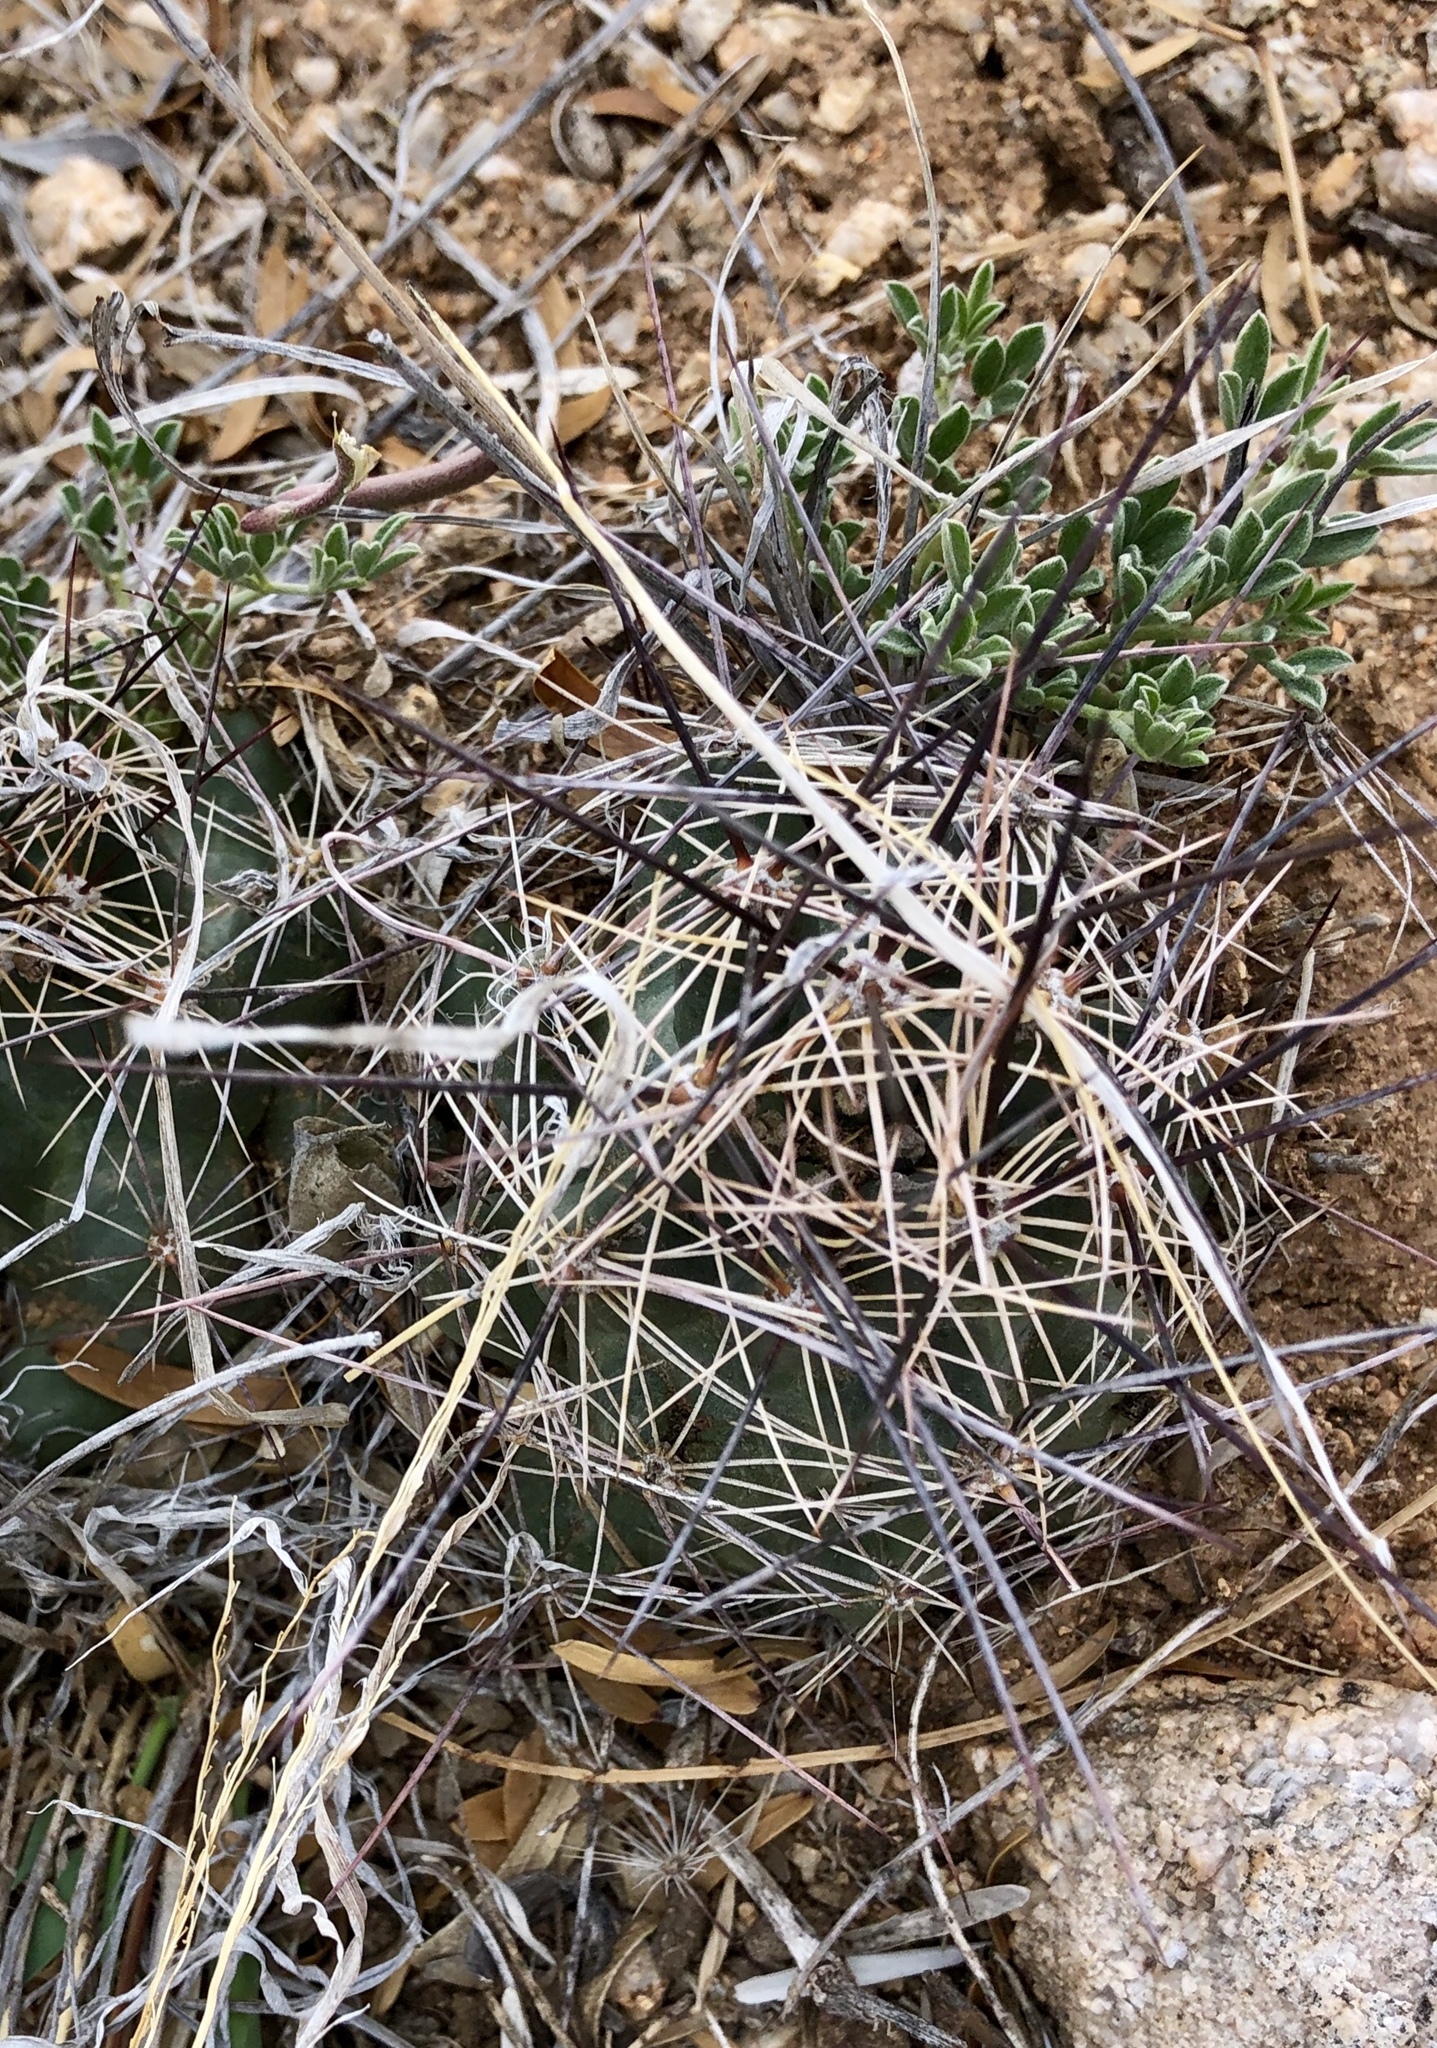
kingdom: Plantae
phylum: Tracheophyta
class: Magnoliopsida
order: Caryophyllales
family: Cactaceae
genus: Coryphantha
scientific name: Coryphantha macromeris
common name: Nipple beehive cactus
